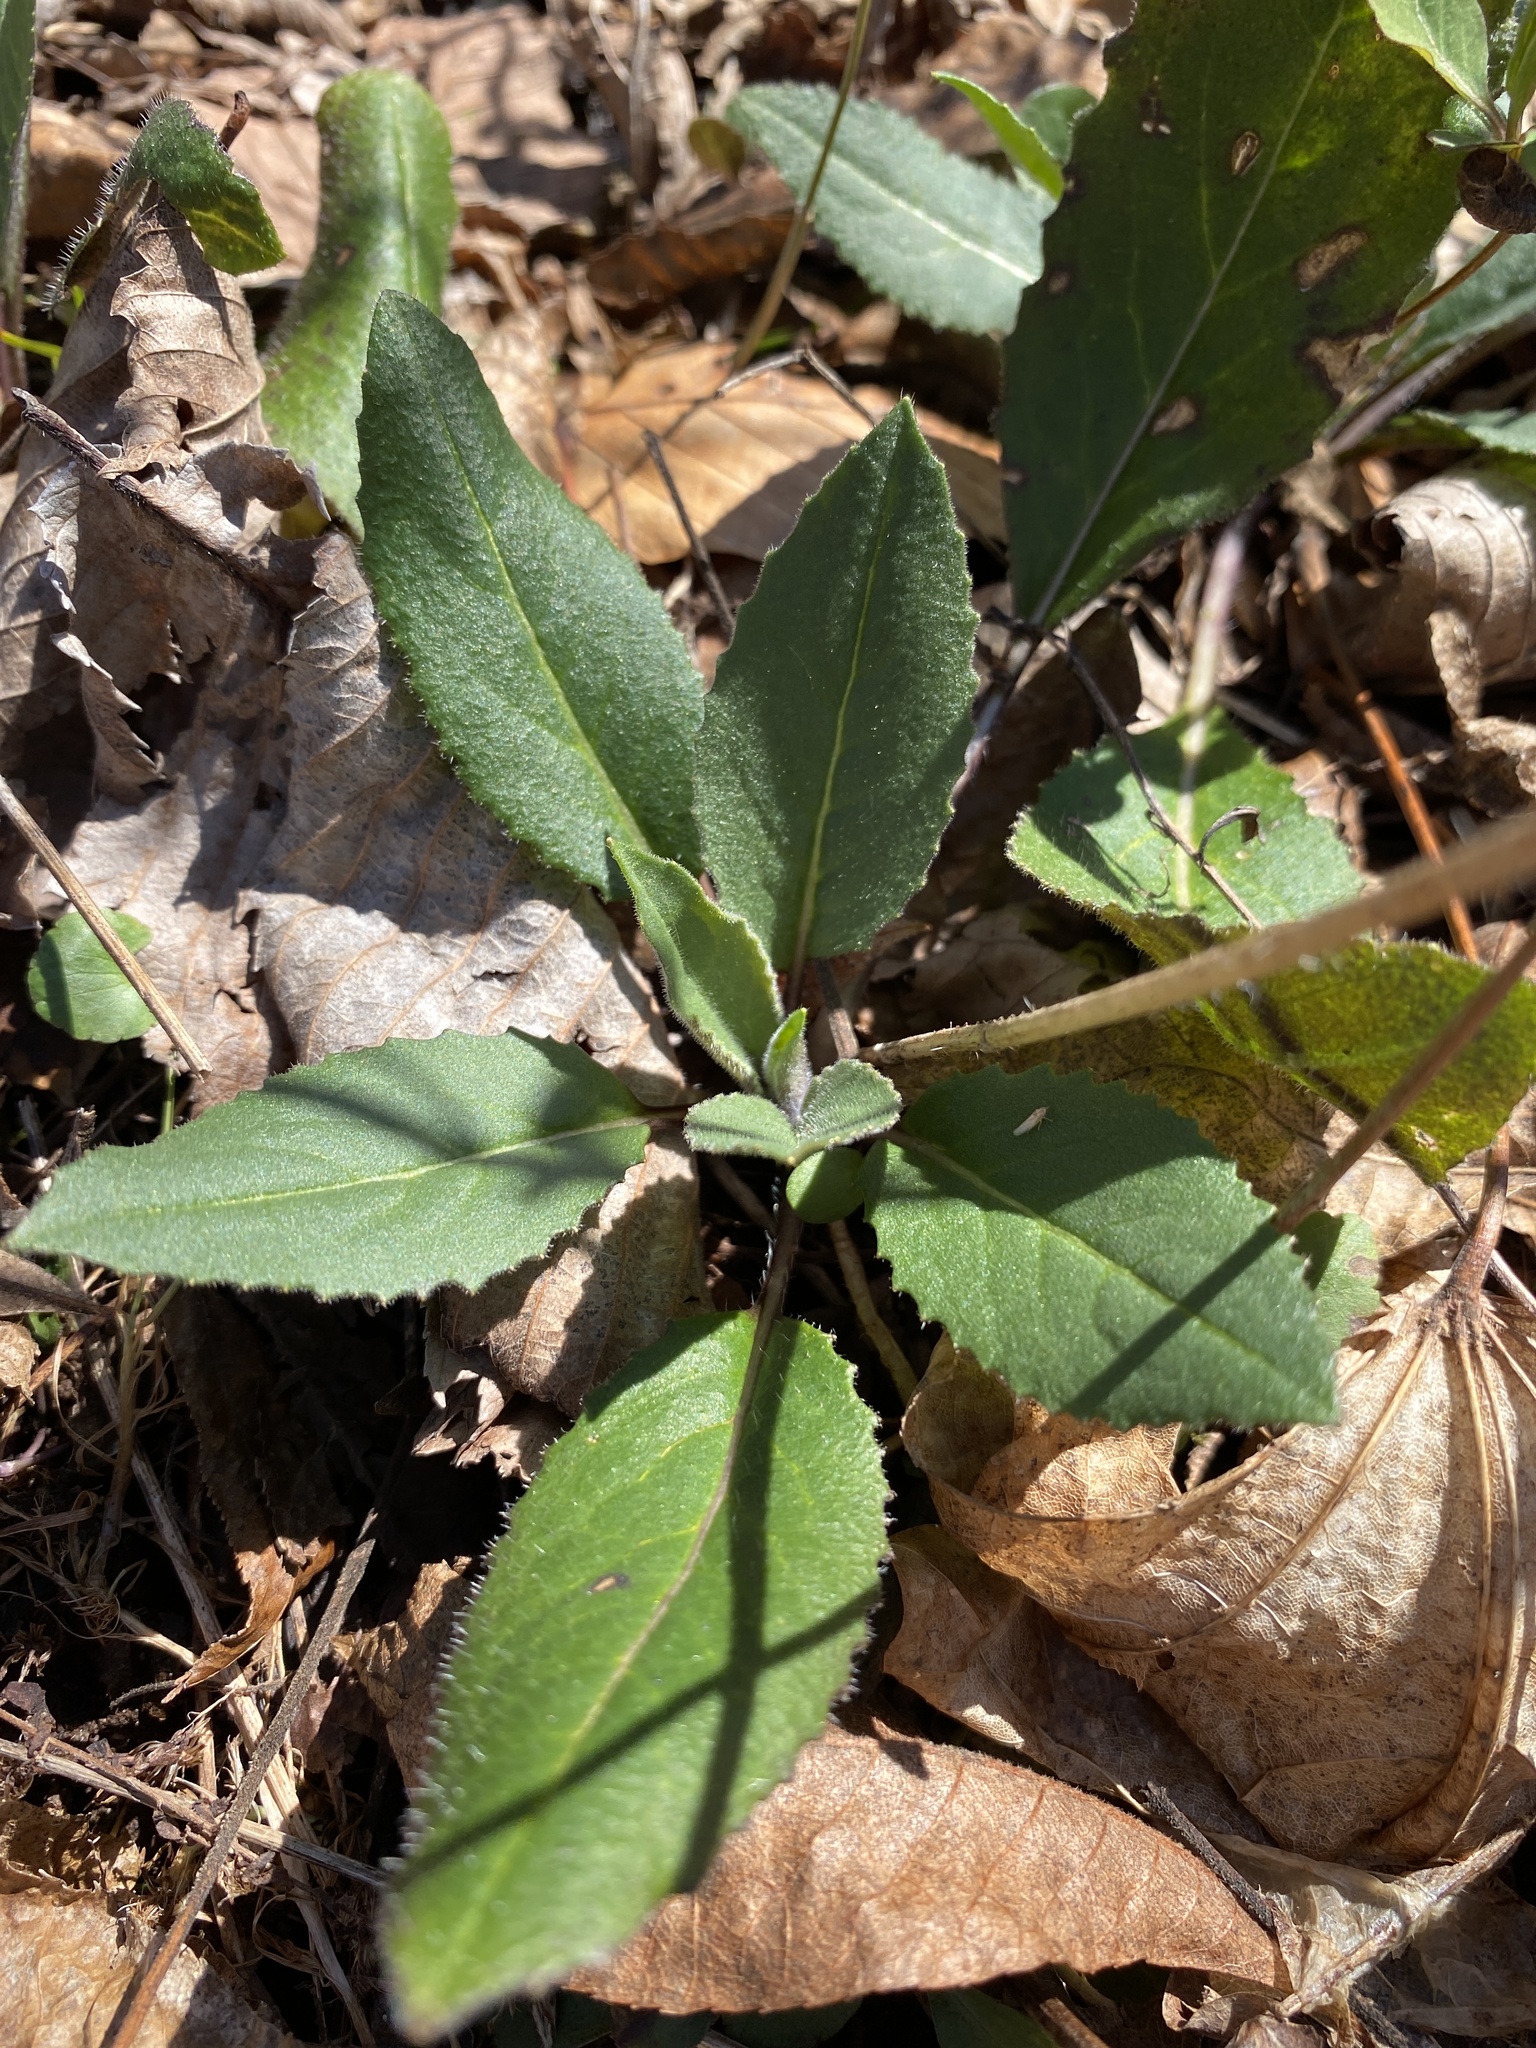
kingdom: Plantae
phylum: Tracheophyta
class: Magnoliopsida
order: Brassicales
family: Brassicaceae
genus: Hesperis
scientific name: Hesperis matronalis
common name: Dame's-violet
